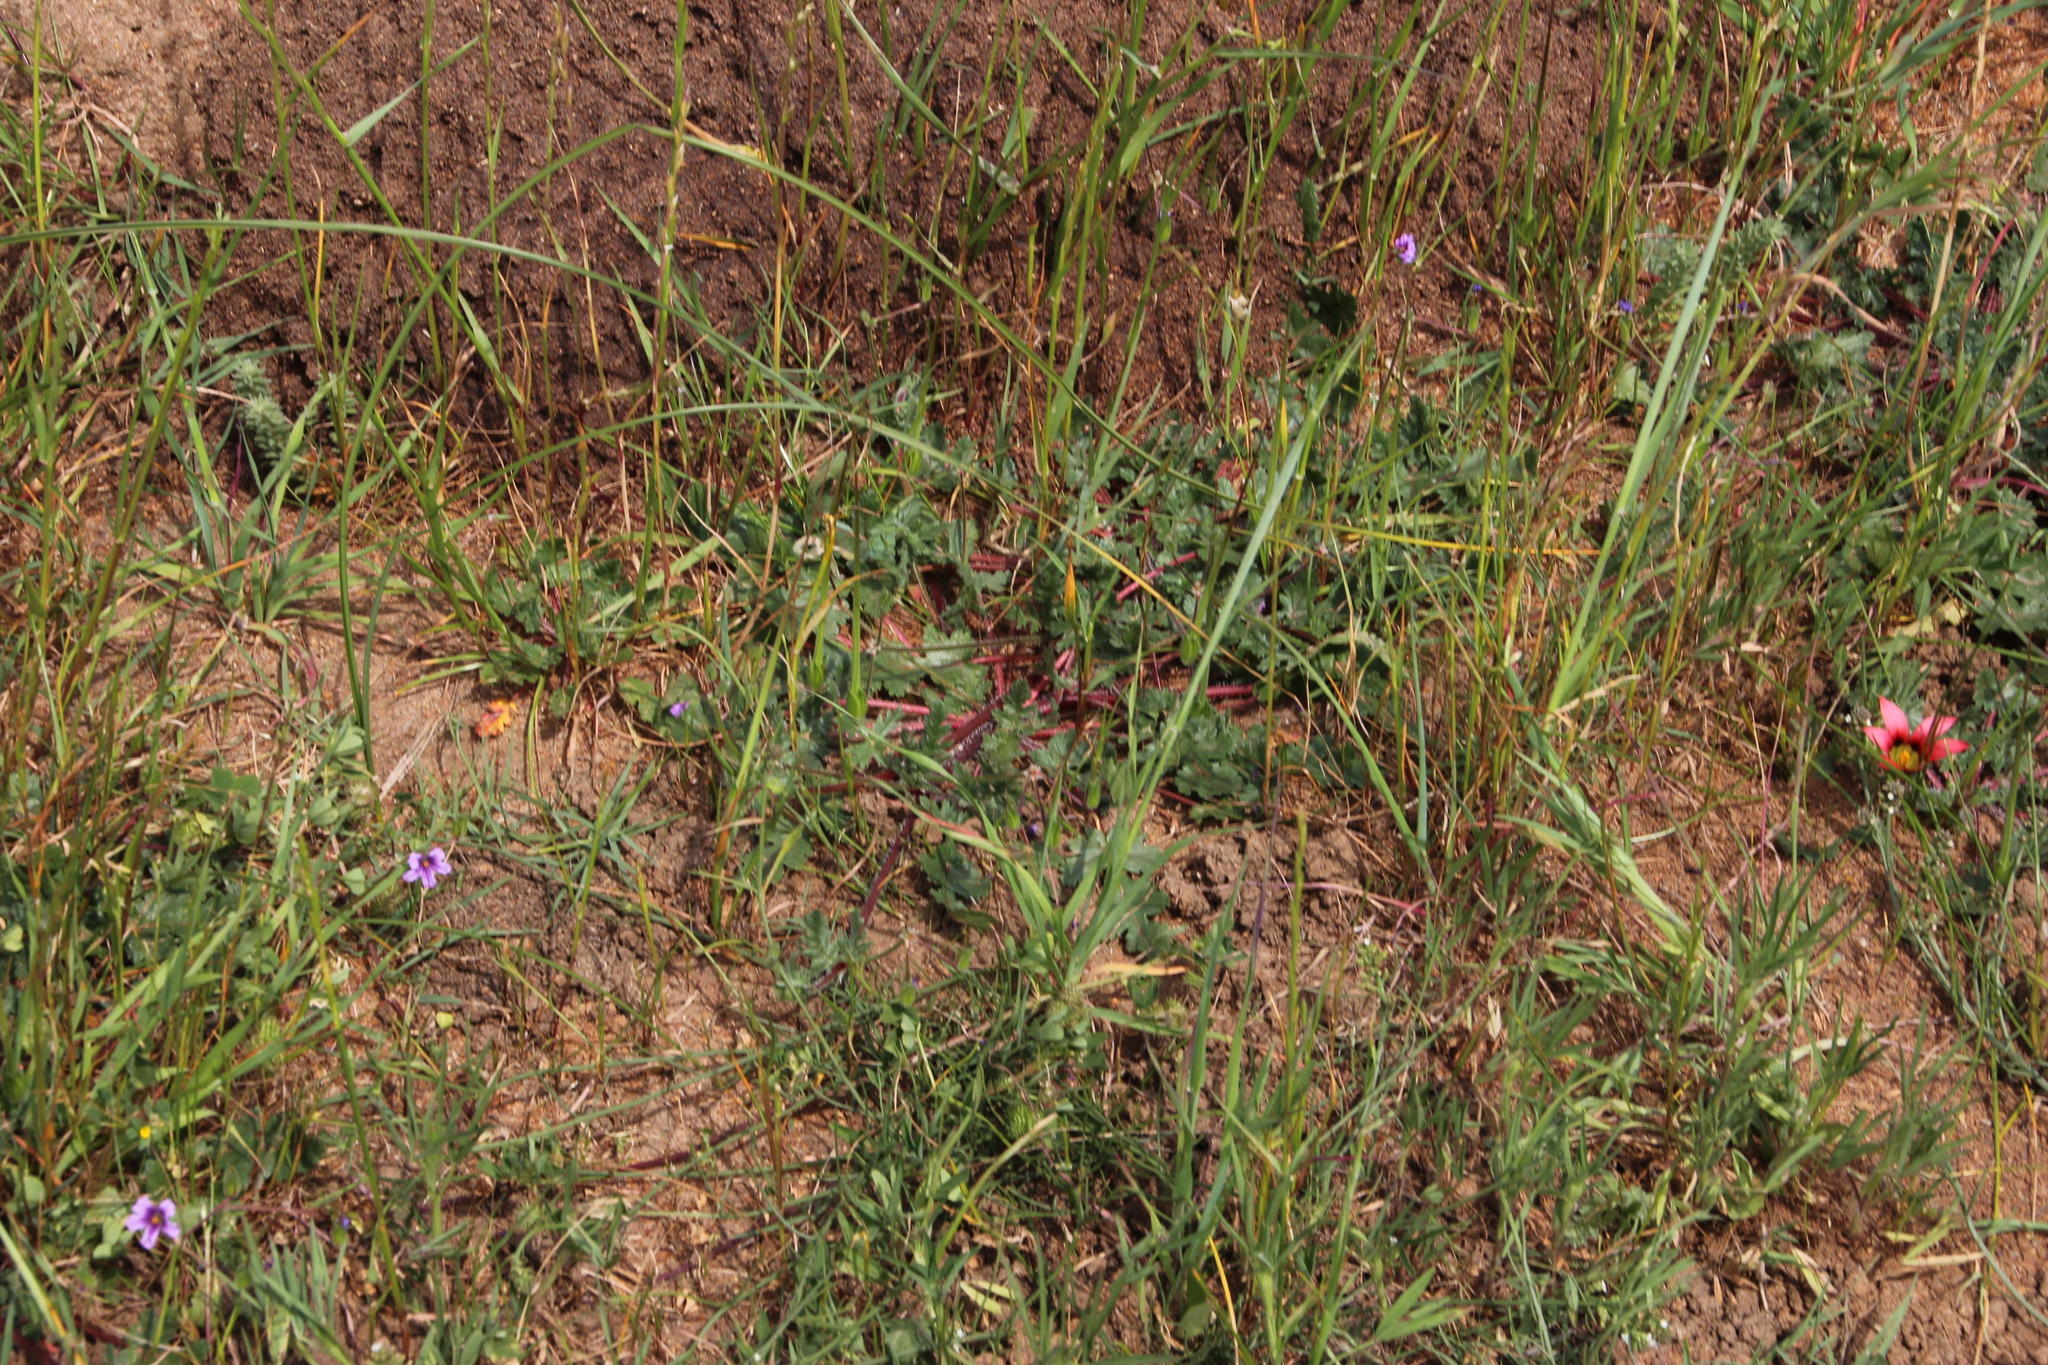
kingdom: Plantae
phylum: Tracheophyta
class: Magnoliopsida
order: Geraniales
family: Geraniaceae
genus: Erodium
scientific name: Erodium botrys
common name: Mediterranean stork's-bill
